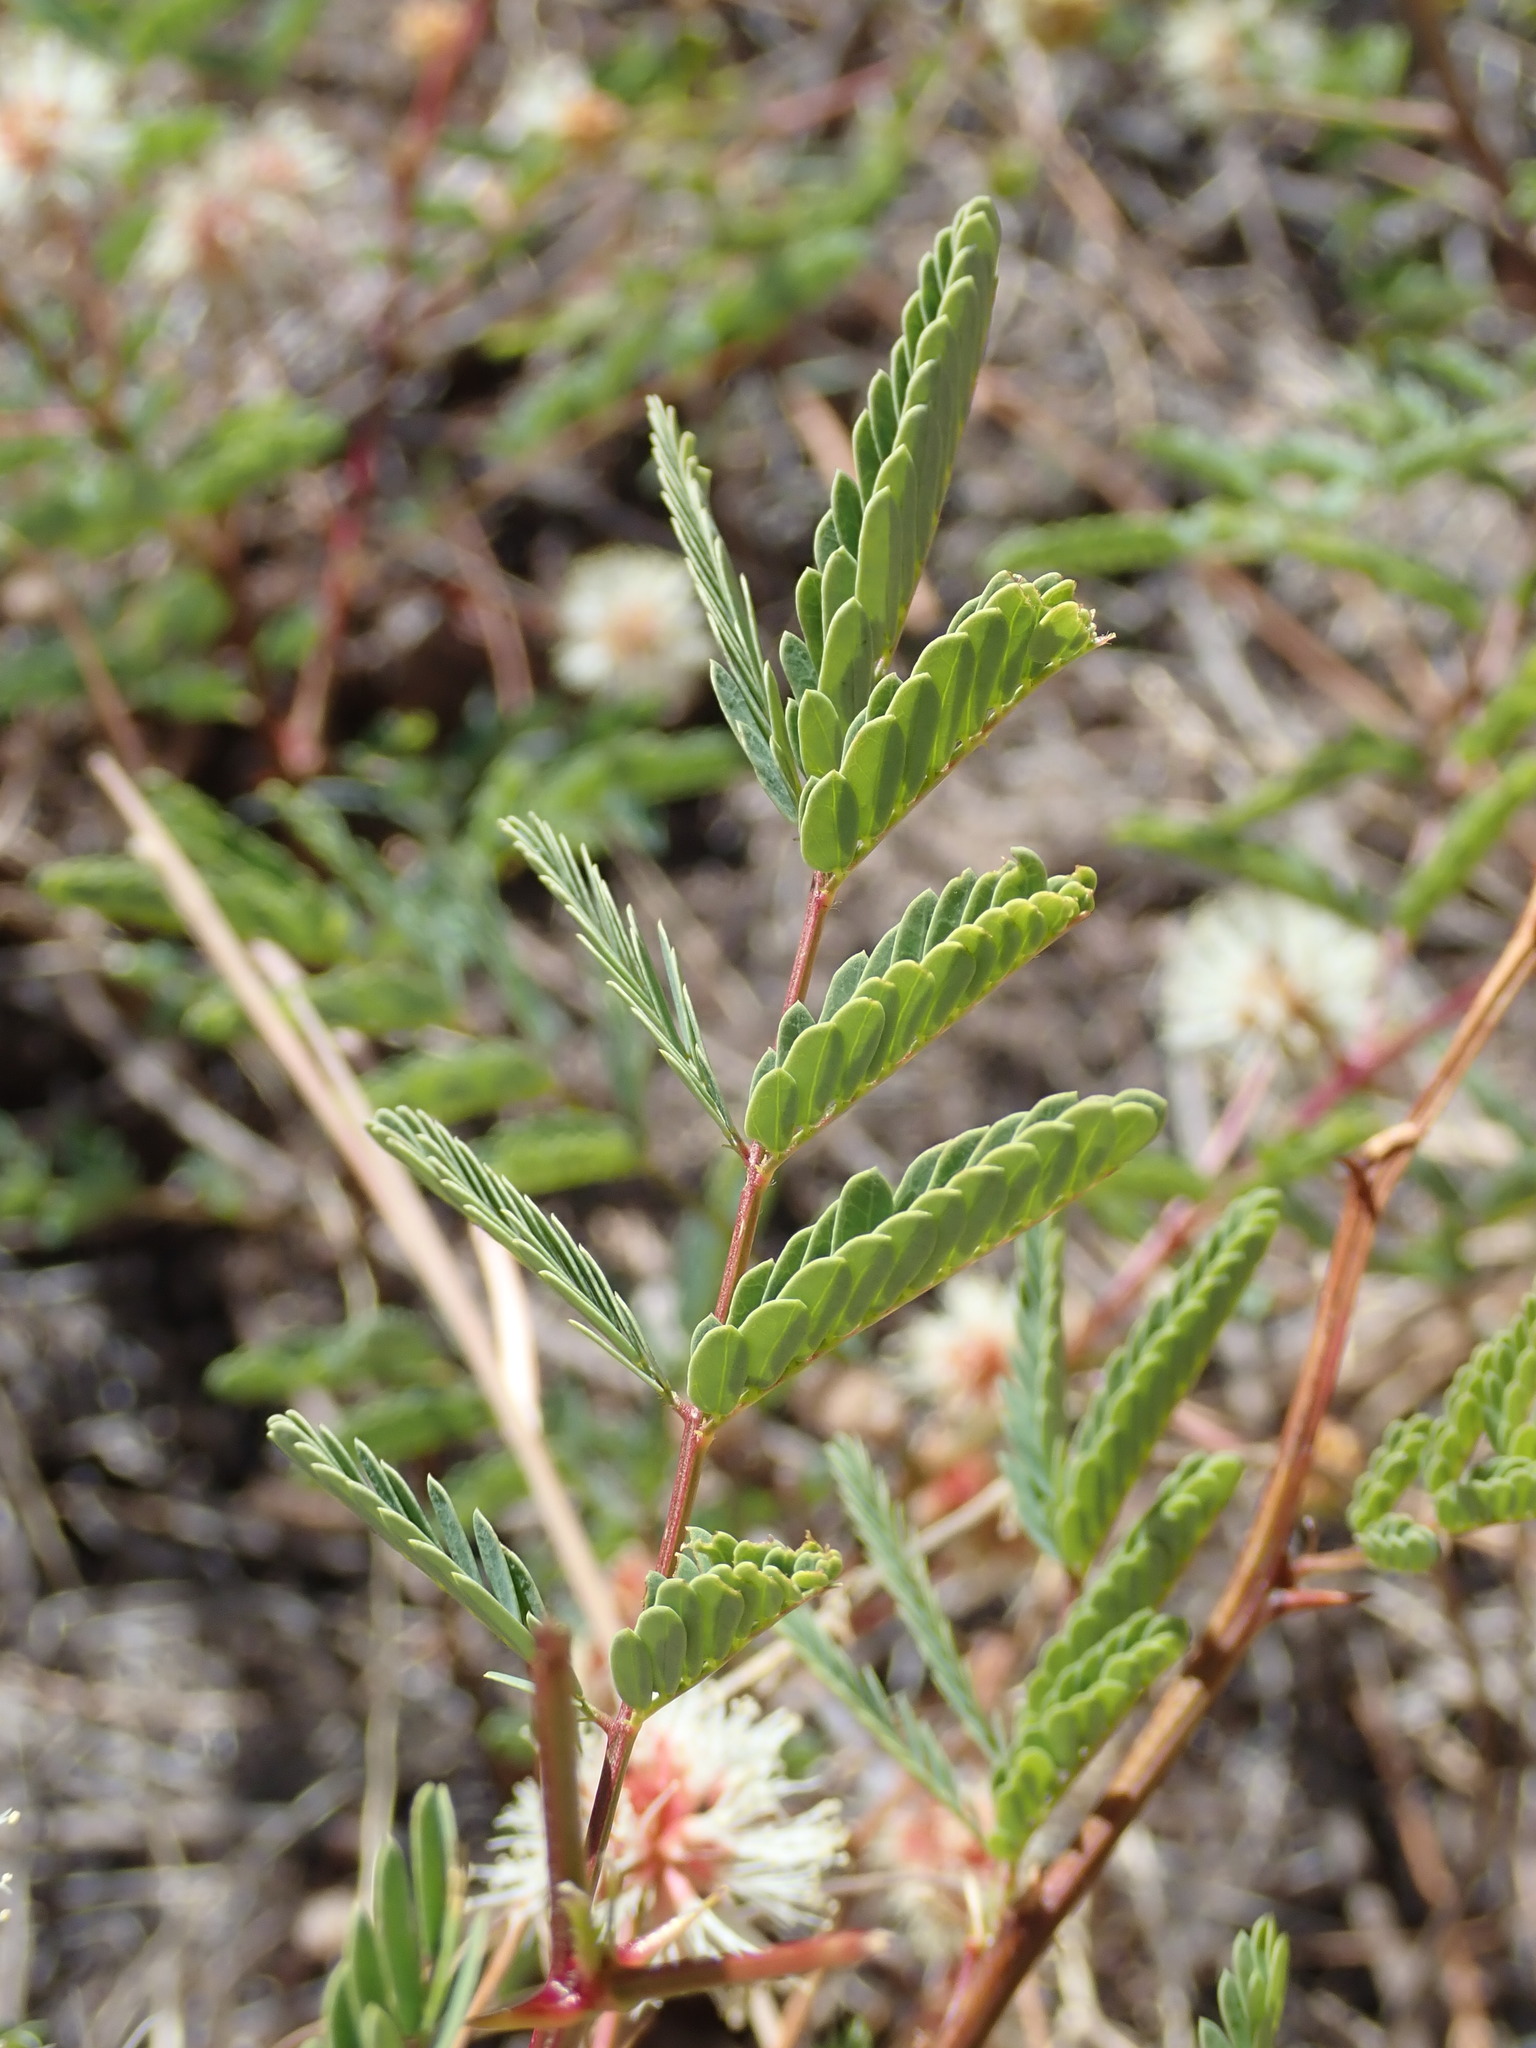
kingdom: Plantae
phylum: Tracheophyta
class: Magnoliopsida
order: Fabales
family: Fabaceae
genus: Mimosa
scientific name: Mimosa grahamii
